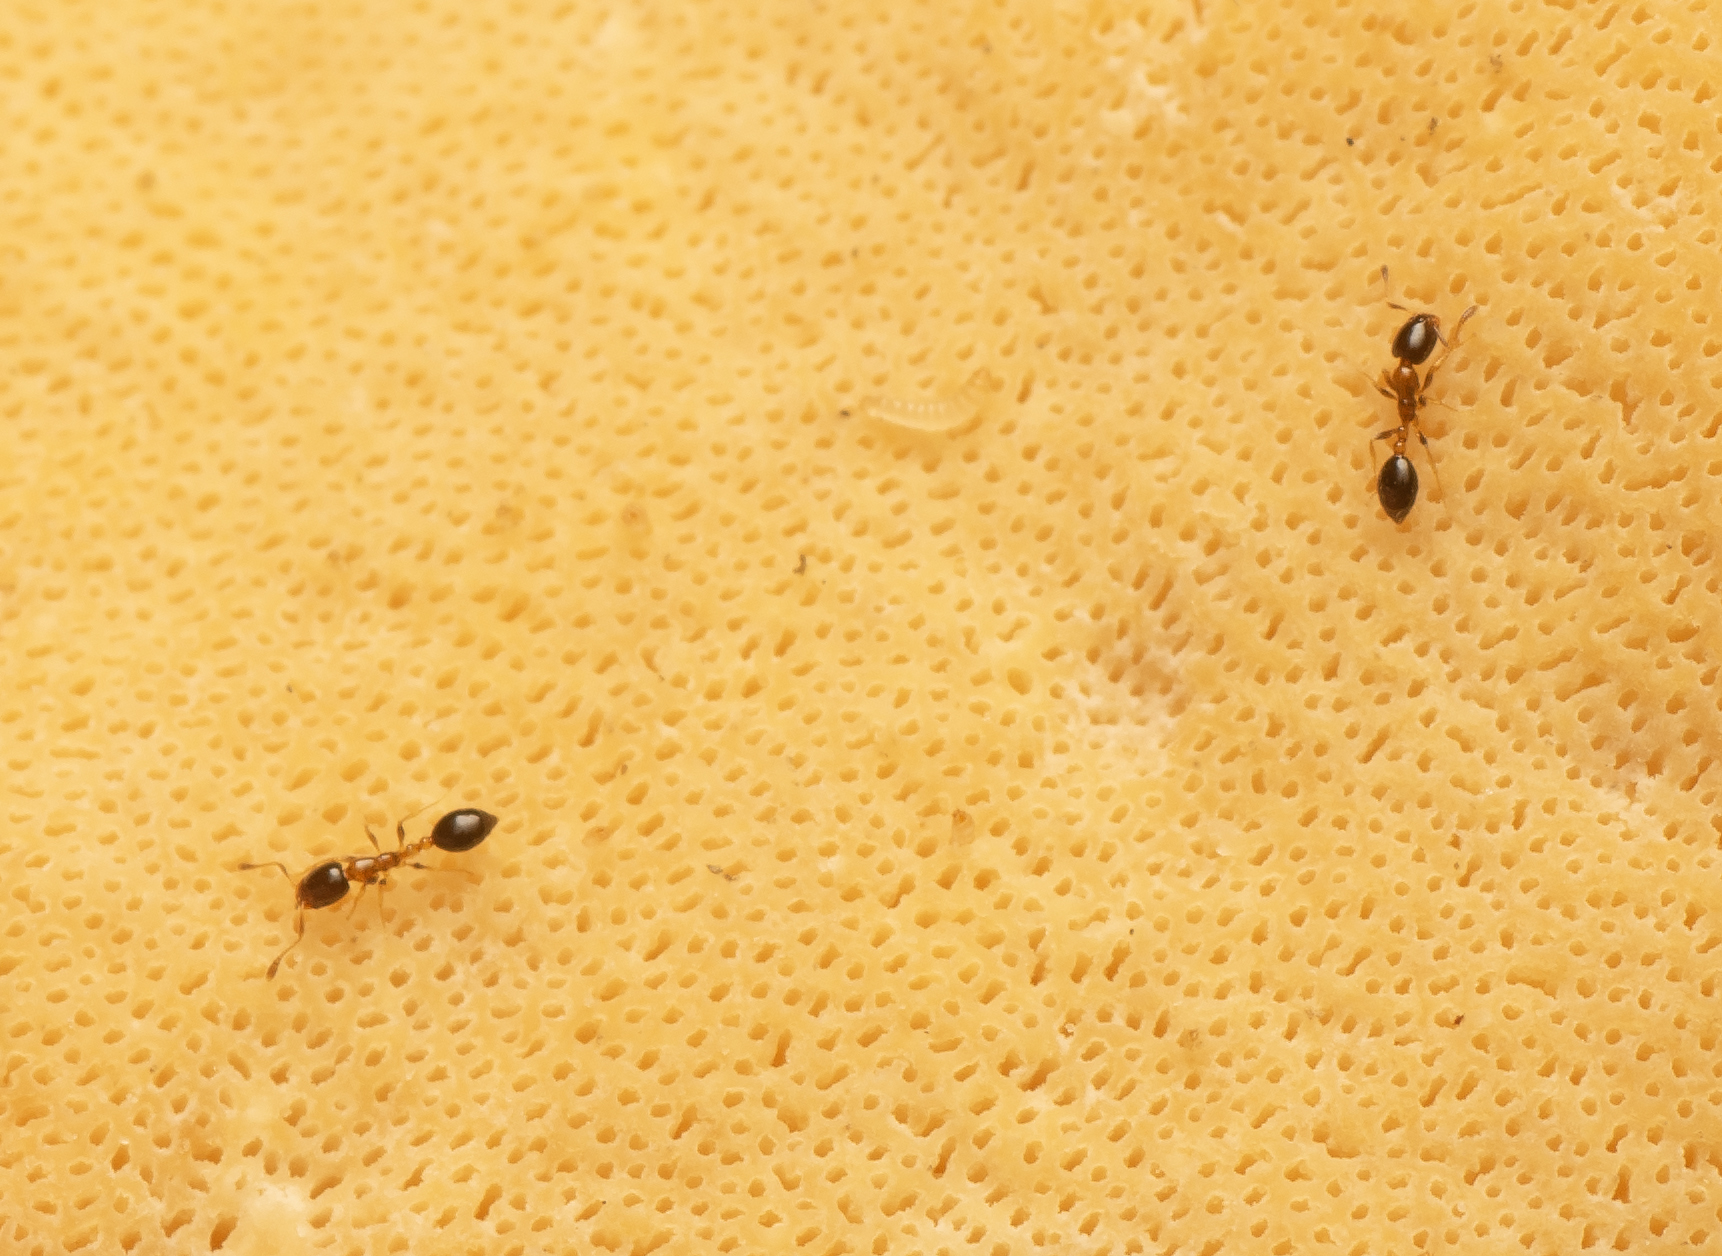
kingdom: Animalia
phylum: Arthropoda
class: Insecta
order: Hymenoptera
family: Formicidae
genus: Monomorium
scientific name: Monomorium floricola
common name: Bicolored trailing ant
